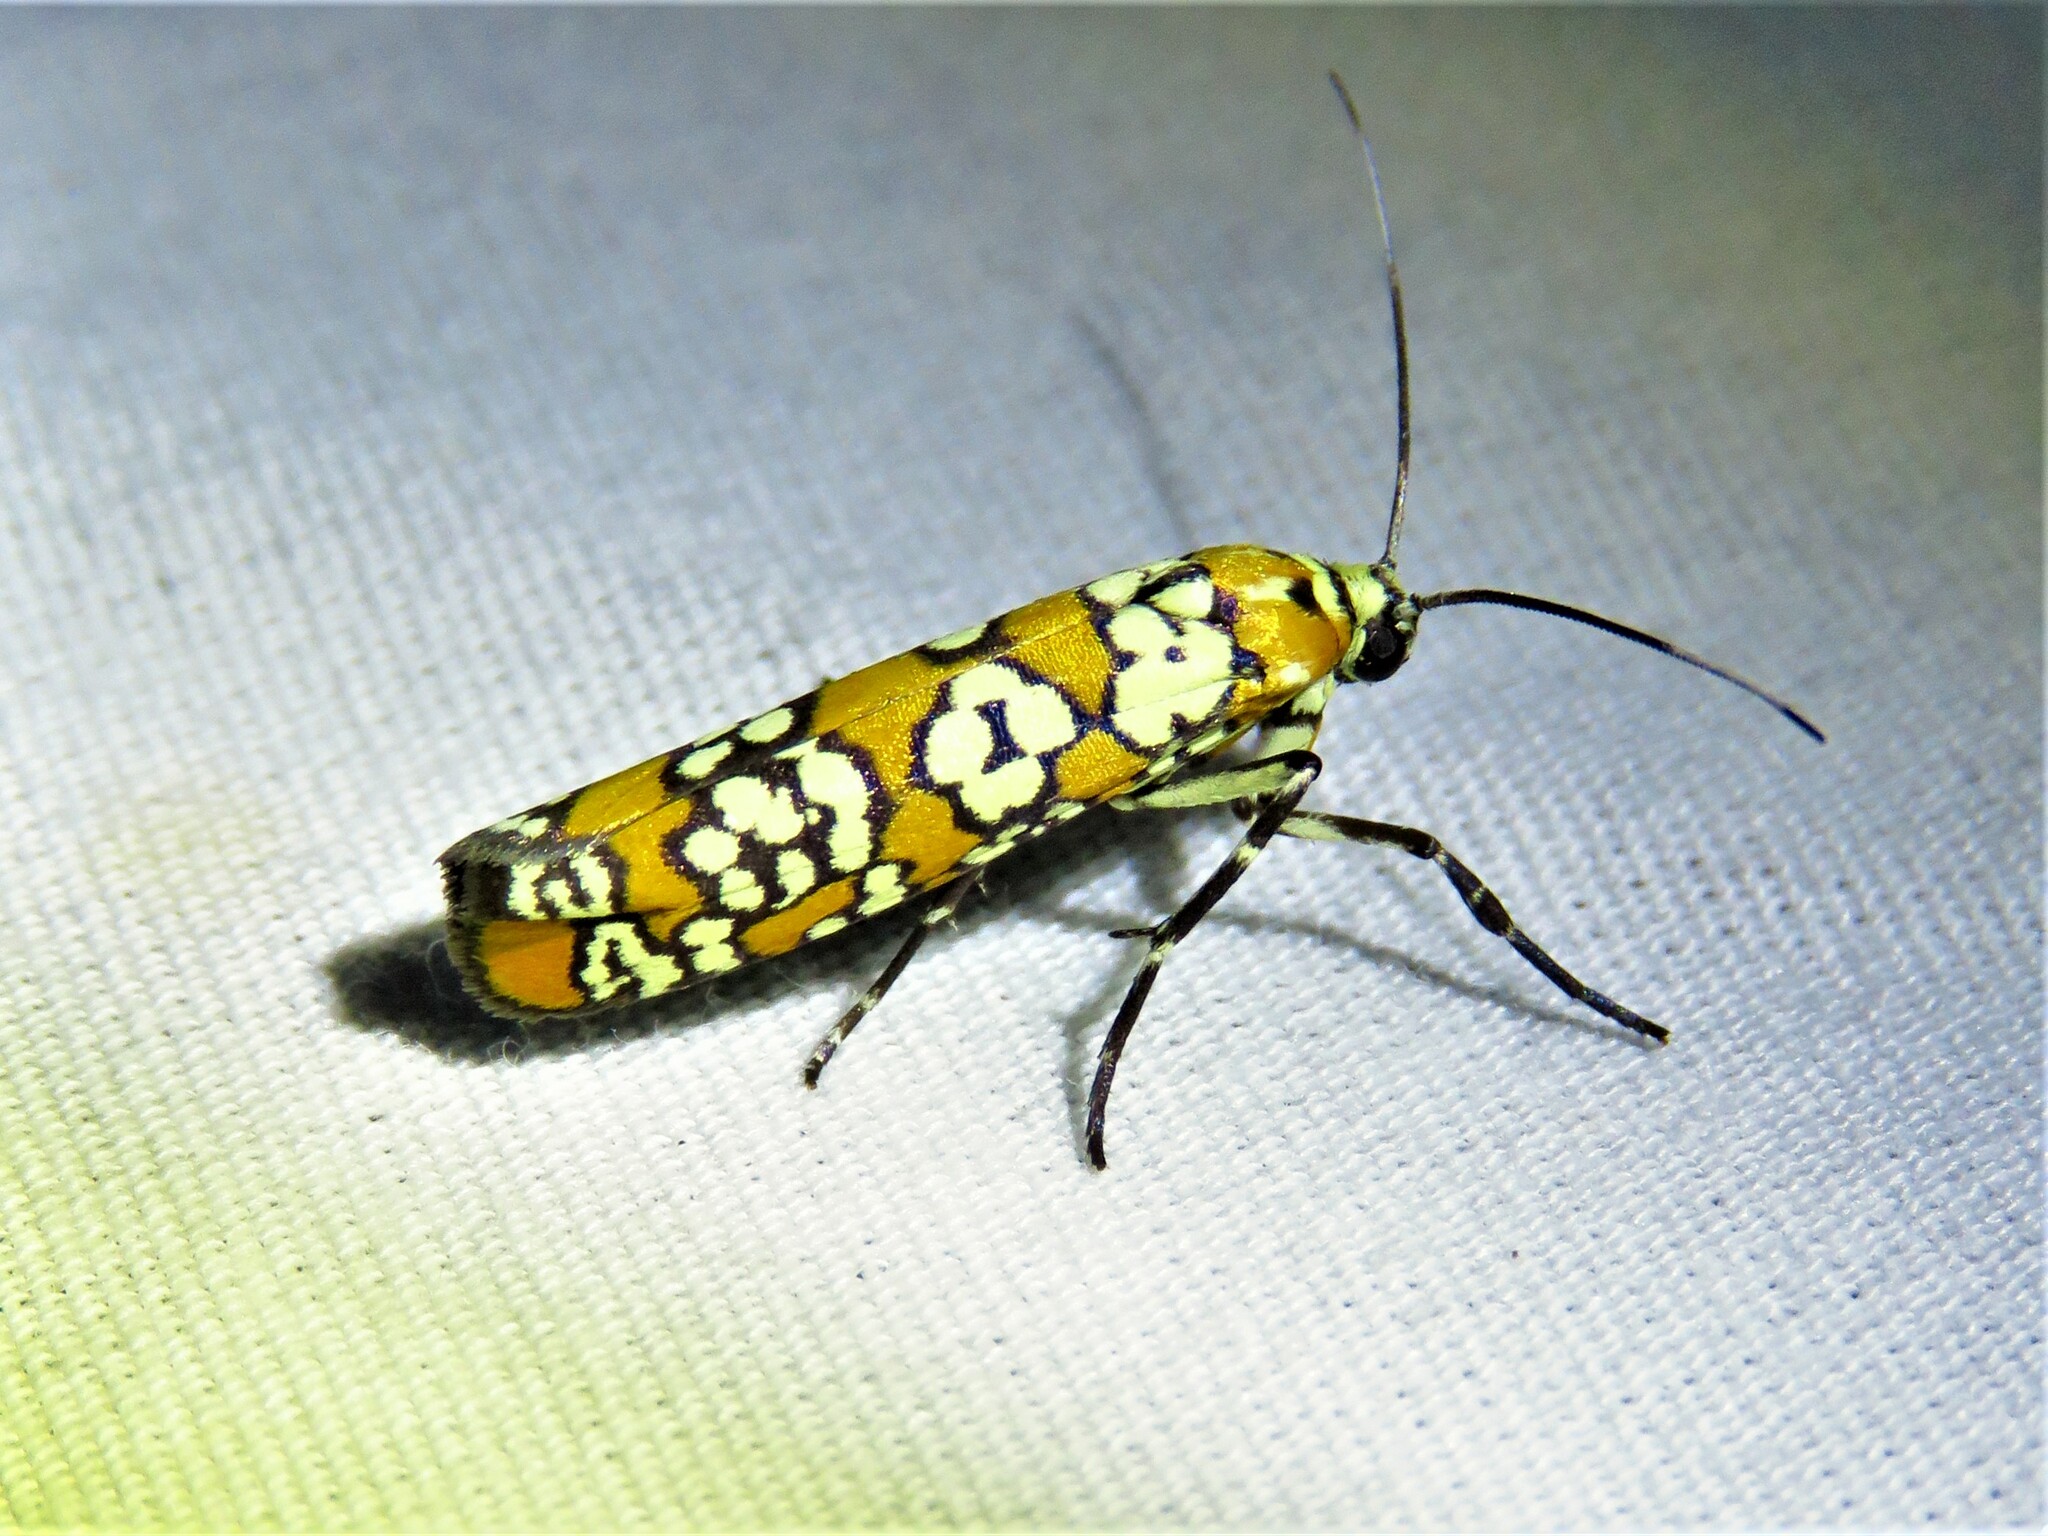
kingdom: Animalia
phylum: Arthropoda
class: Insecta
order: Lepidoptera
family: Attevidae
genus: Atteva
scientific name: Atteva punctella
